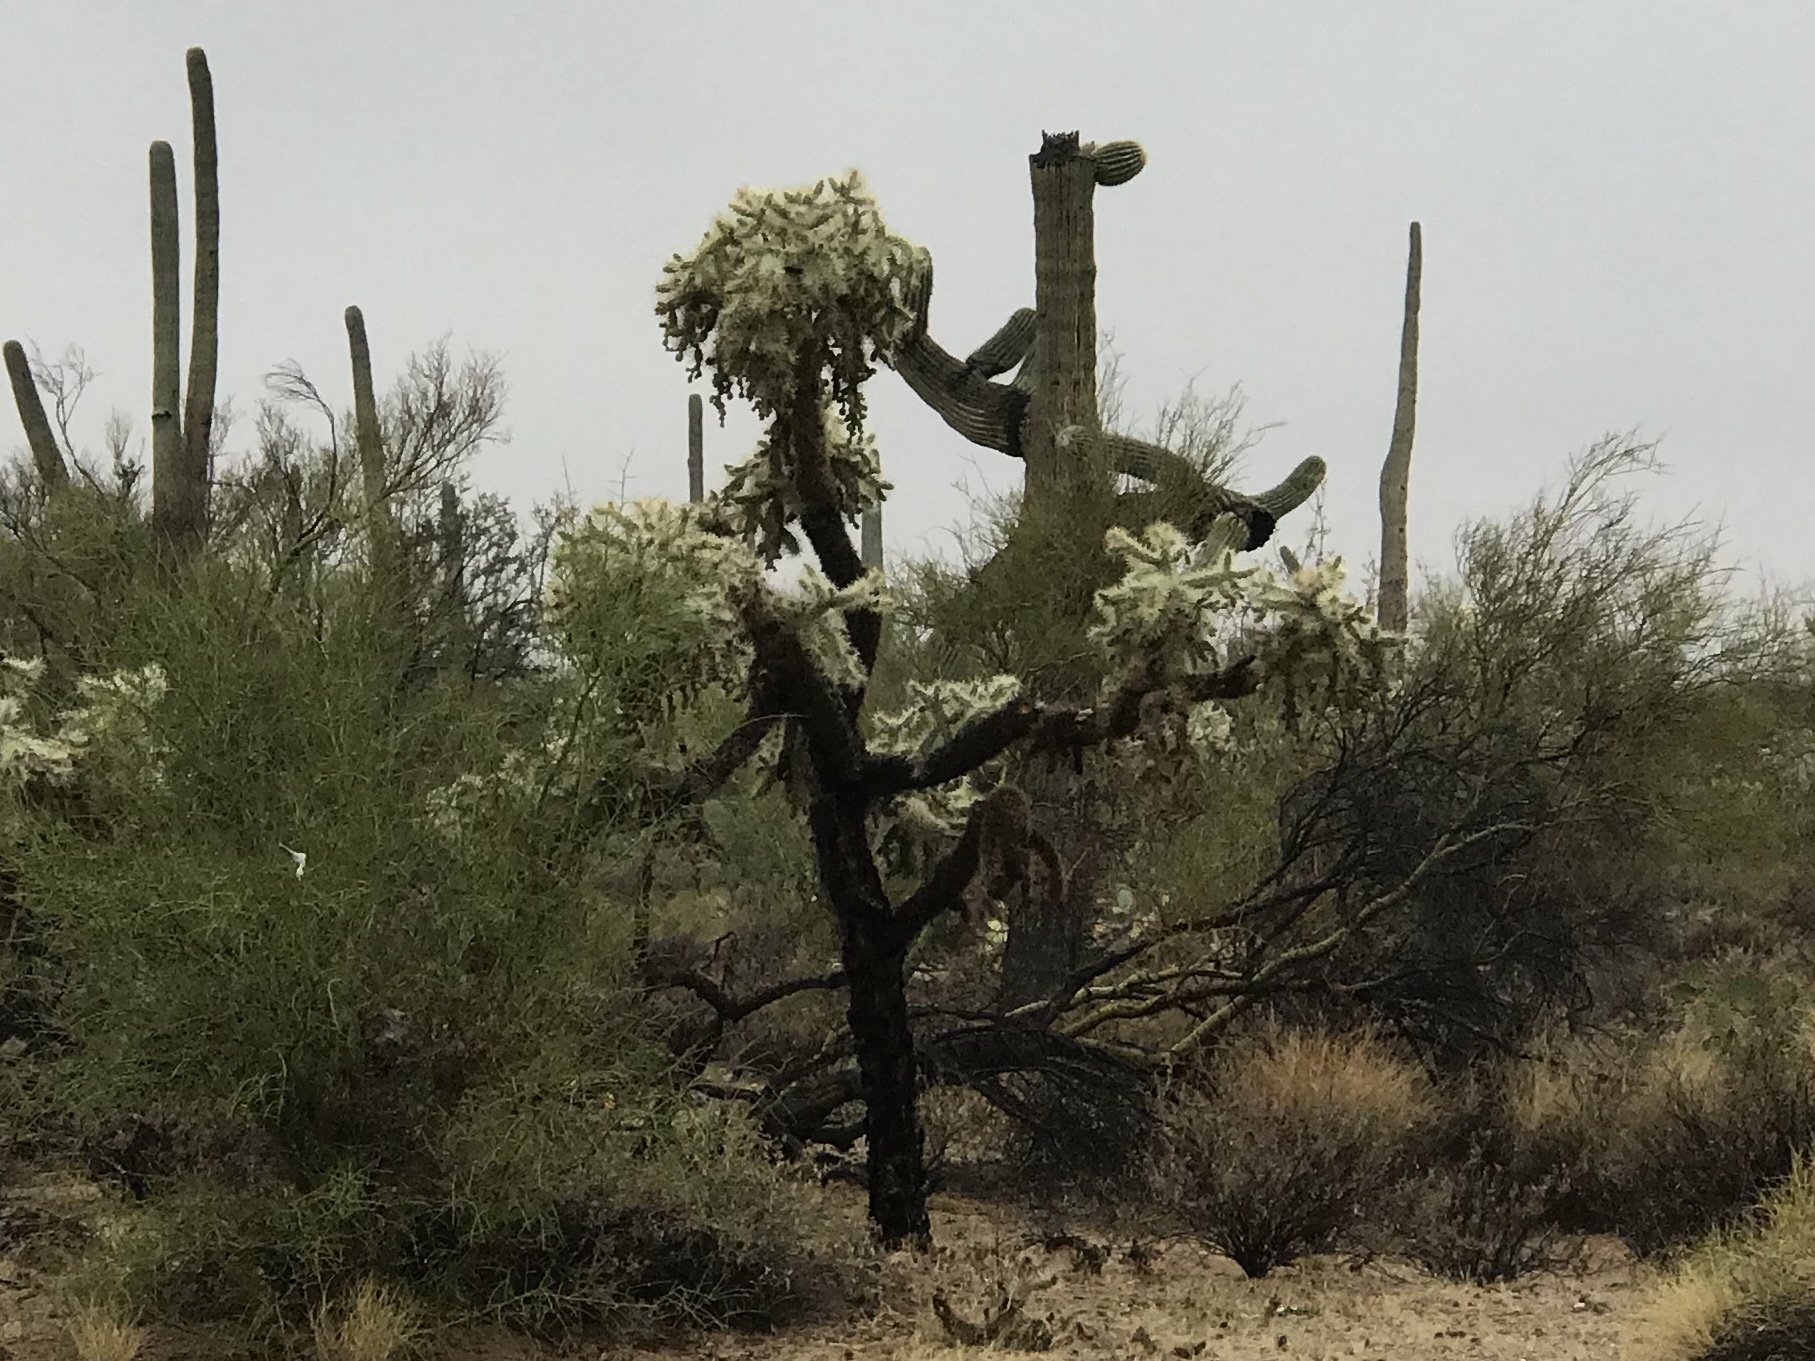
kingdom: Plantae
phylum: Tracheophyta
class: Magnoliopsida
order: Caryophyllales
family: Cactaceae
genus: Cylindropuntia
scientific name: Cylindropuntia fulgida
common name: Jumping cholla
